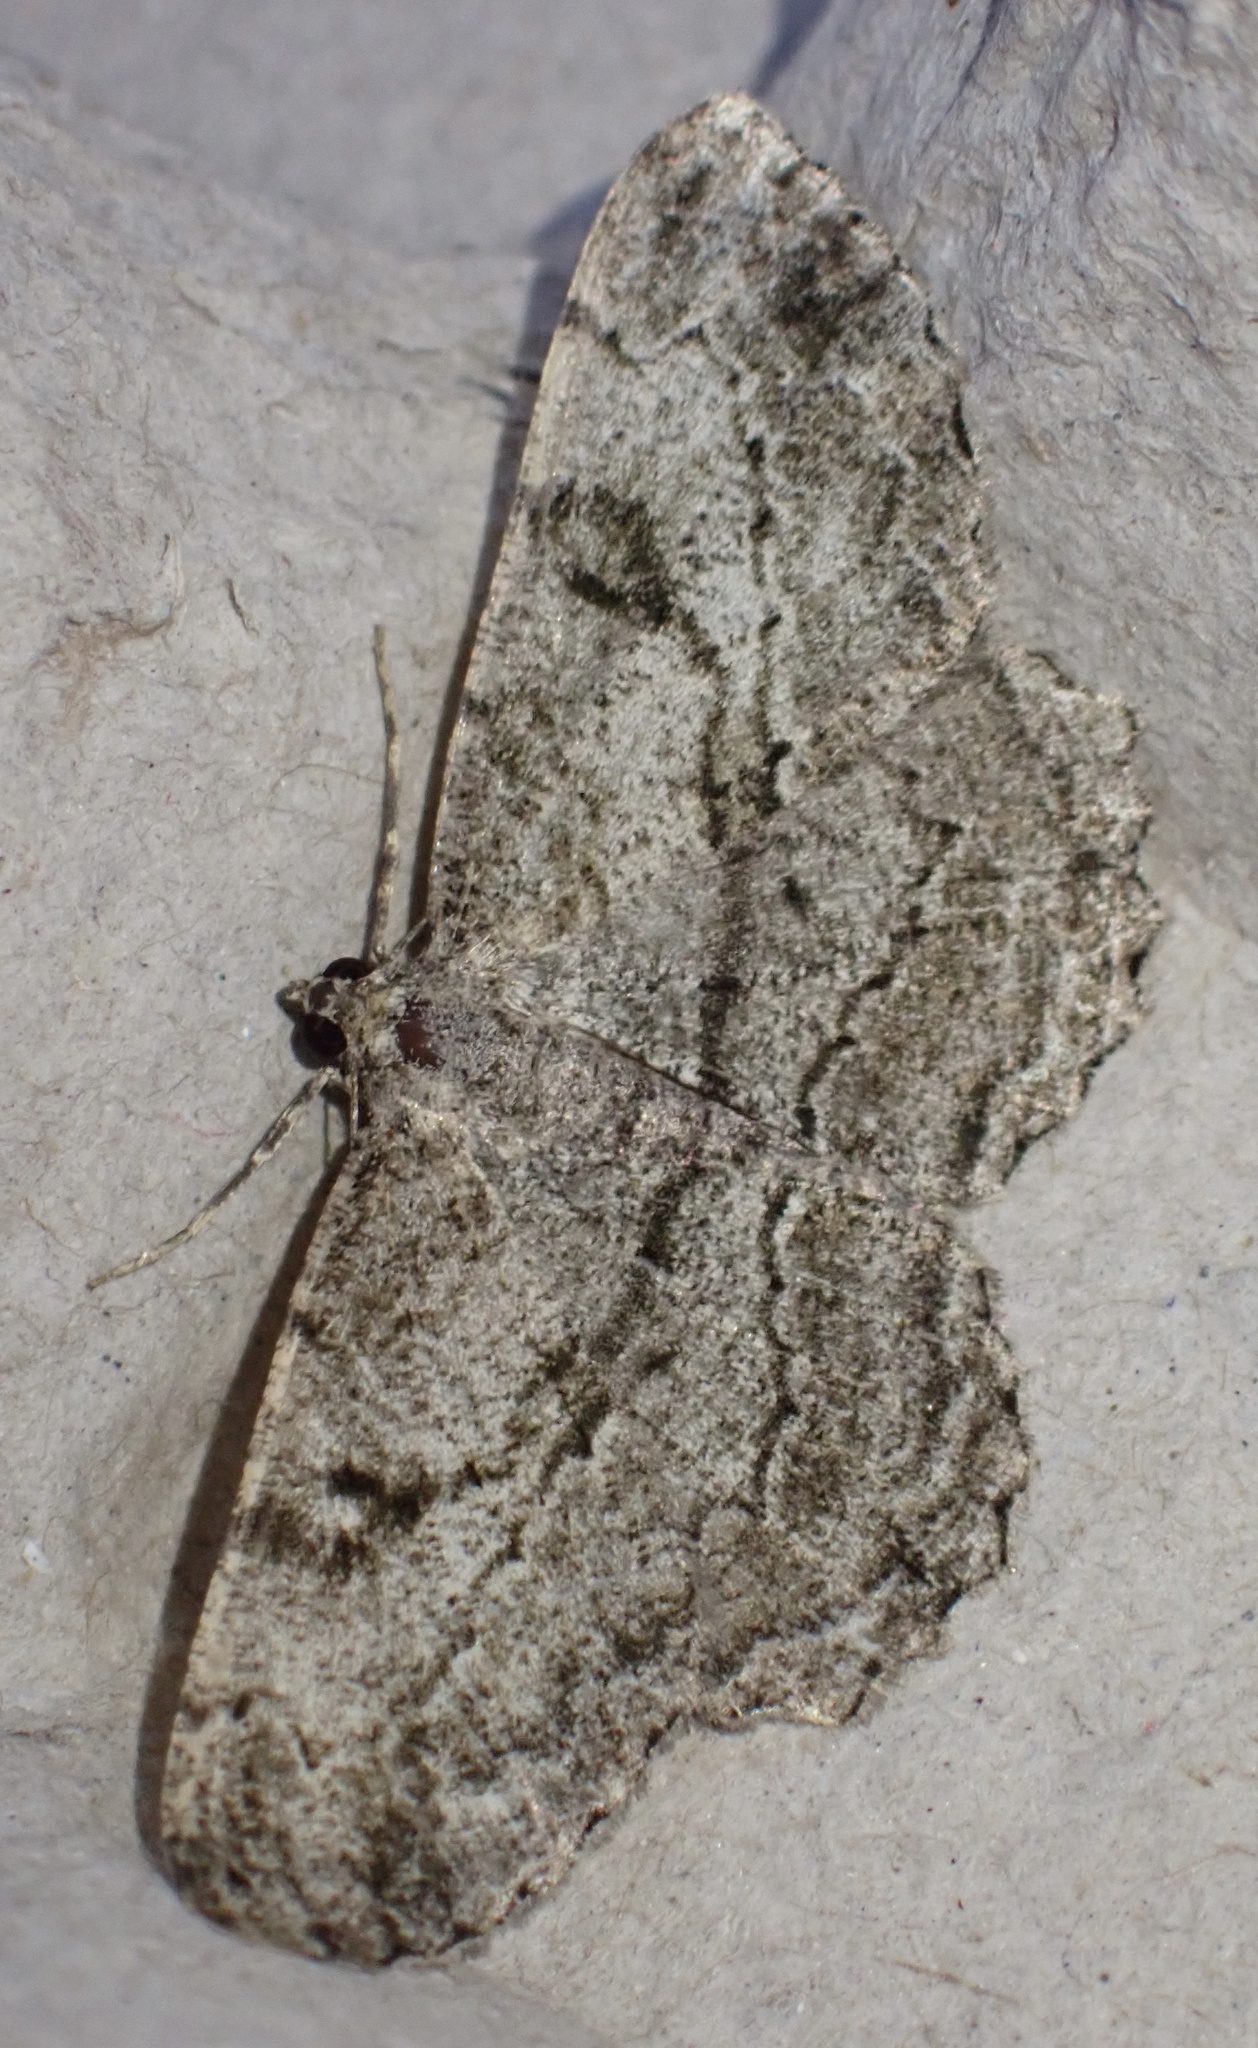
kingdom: Animalia
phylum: Arthropoda
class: Insecta
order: Lepidoptera
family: Geometridae
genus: Peribatodes
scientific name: Peribatodes rhomboidaria
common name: Willow beauty
